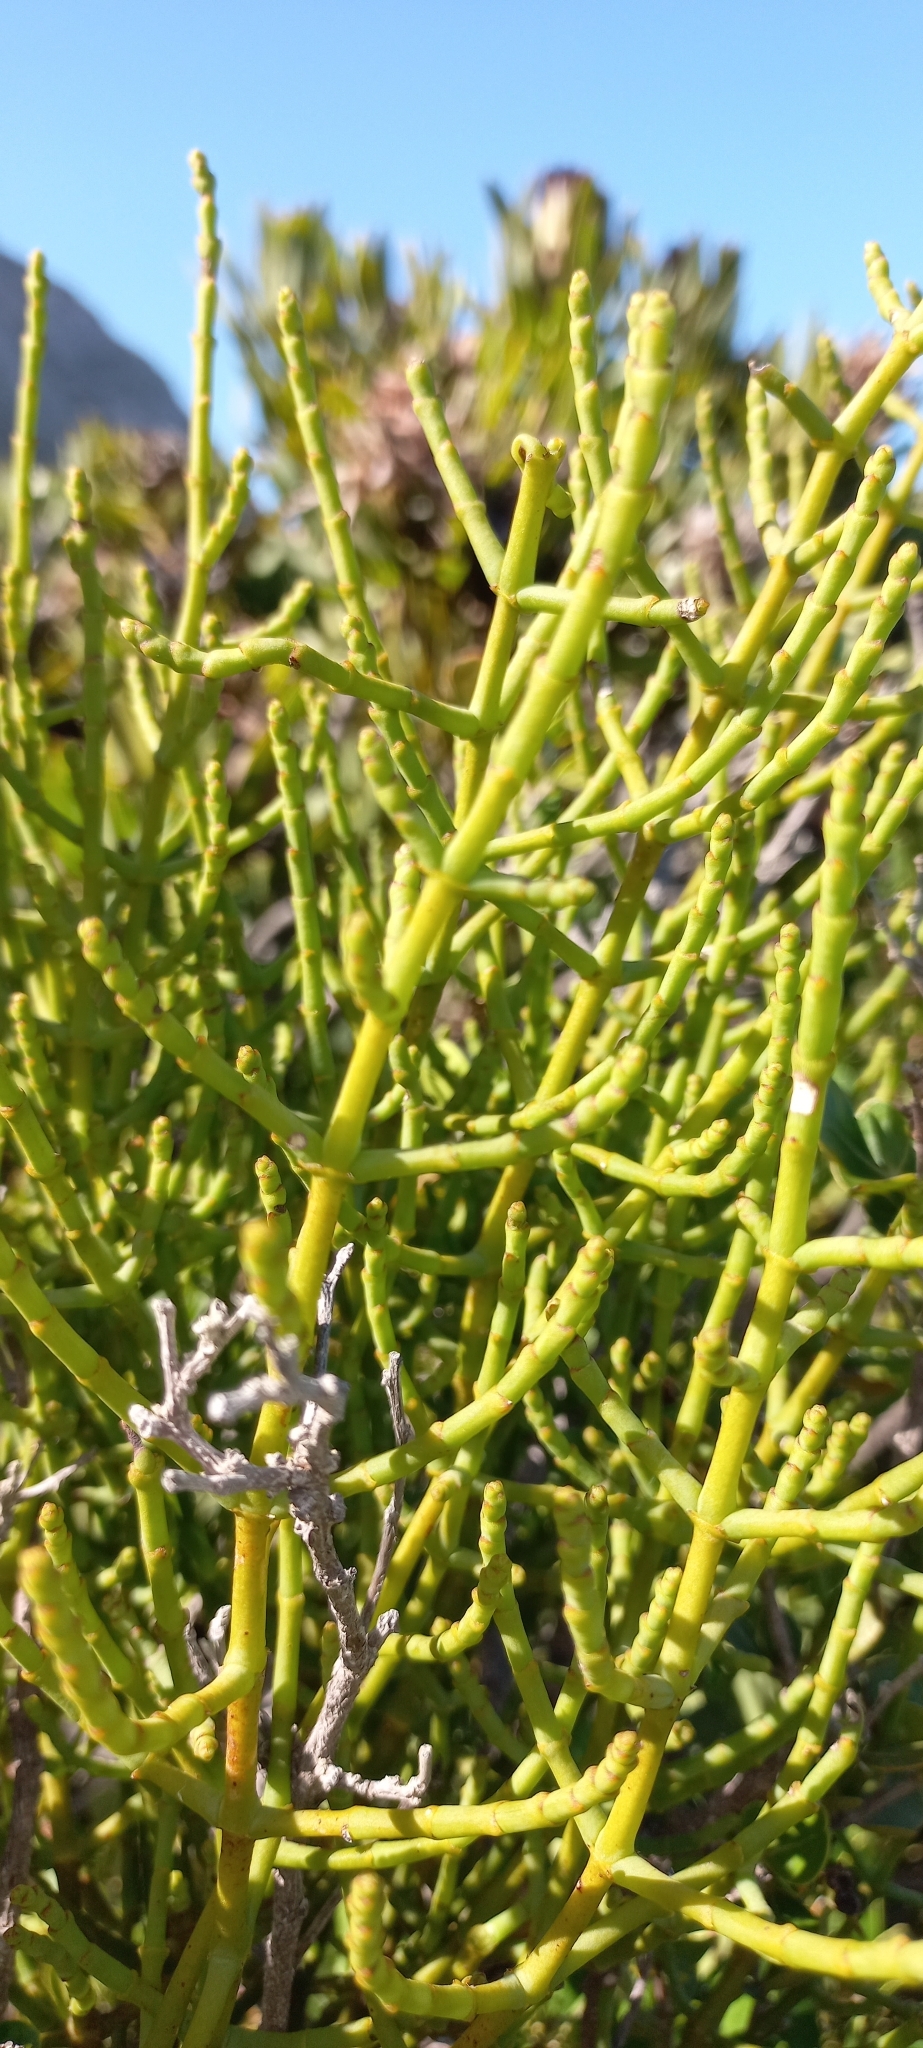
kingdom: Plantae
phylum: Tracheophyta
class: Magnoliopsida
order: Santalales
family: Viscaceae
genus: Viscum
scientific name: Viscum capense
